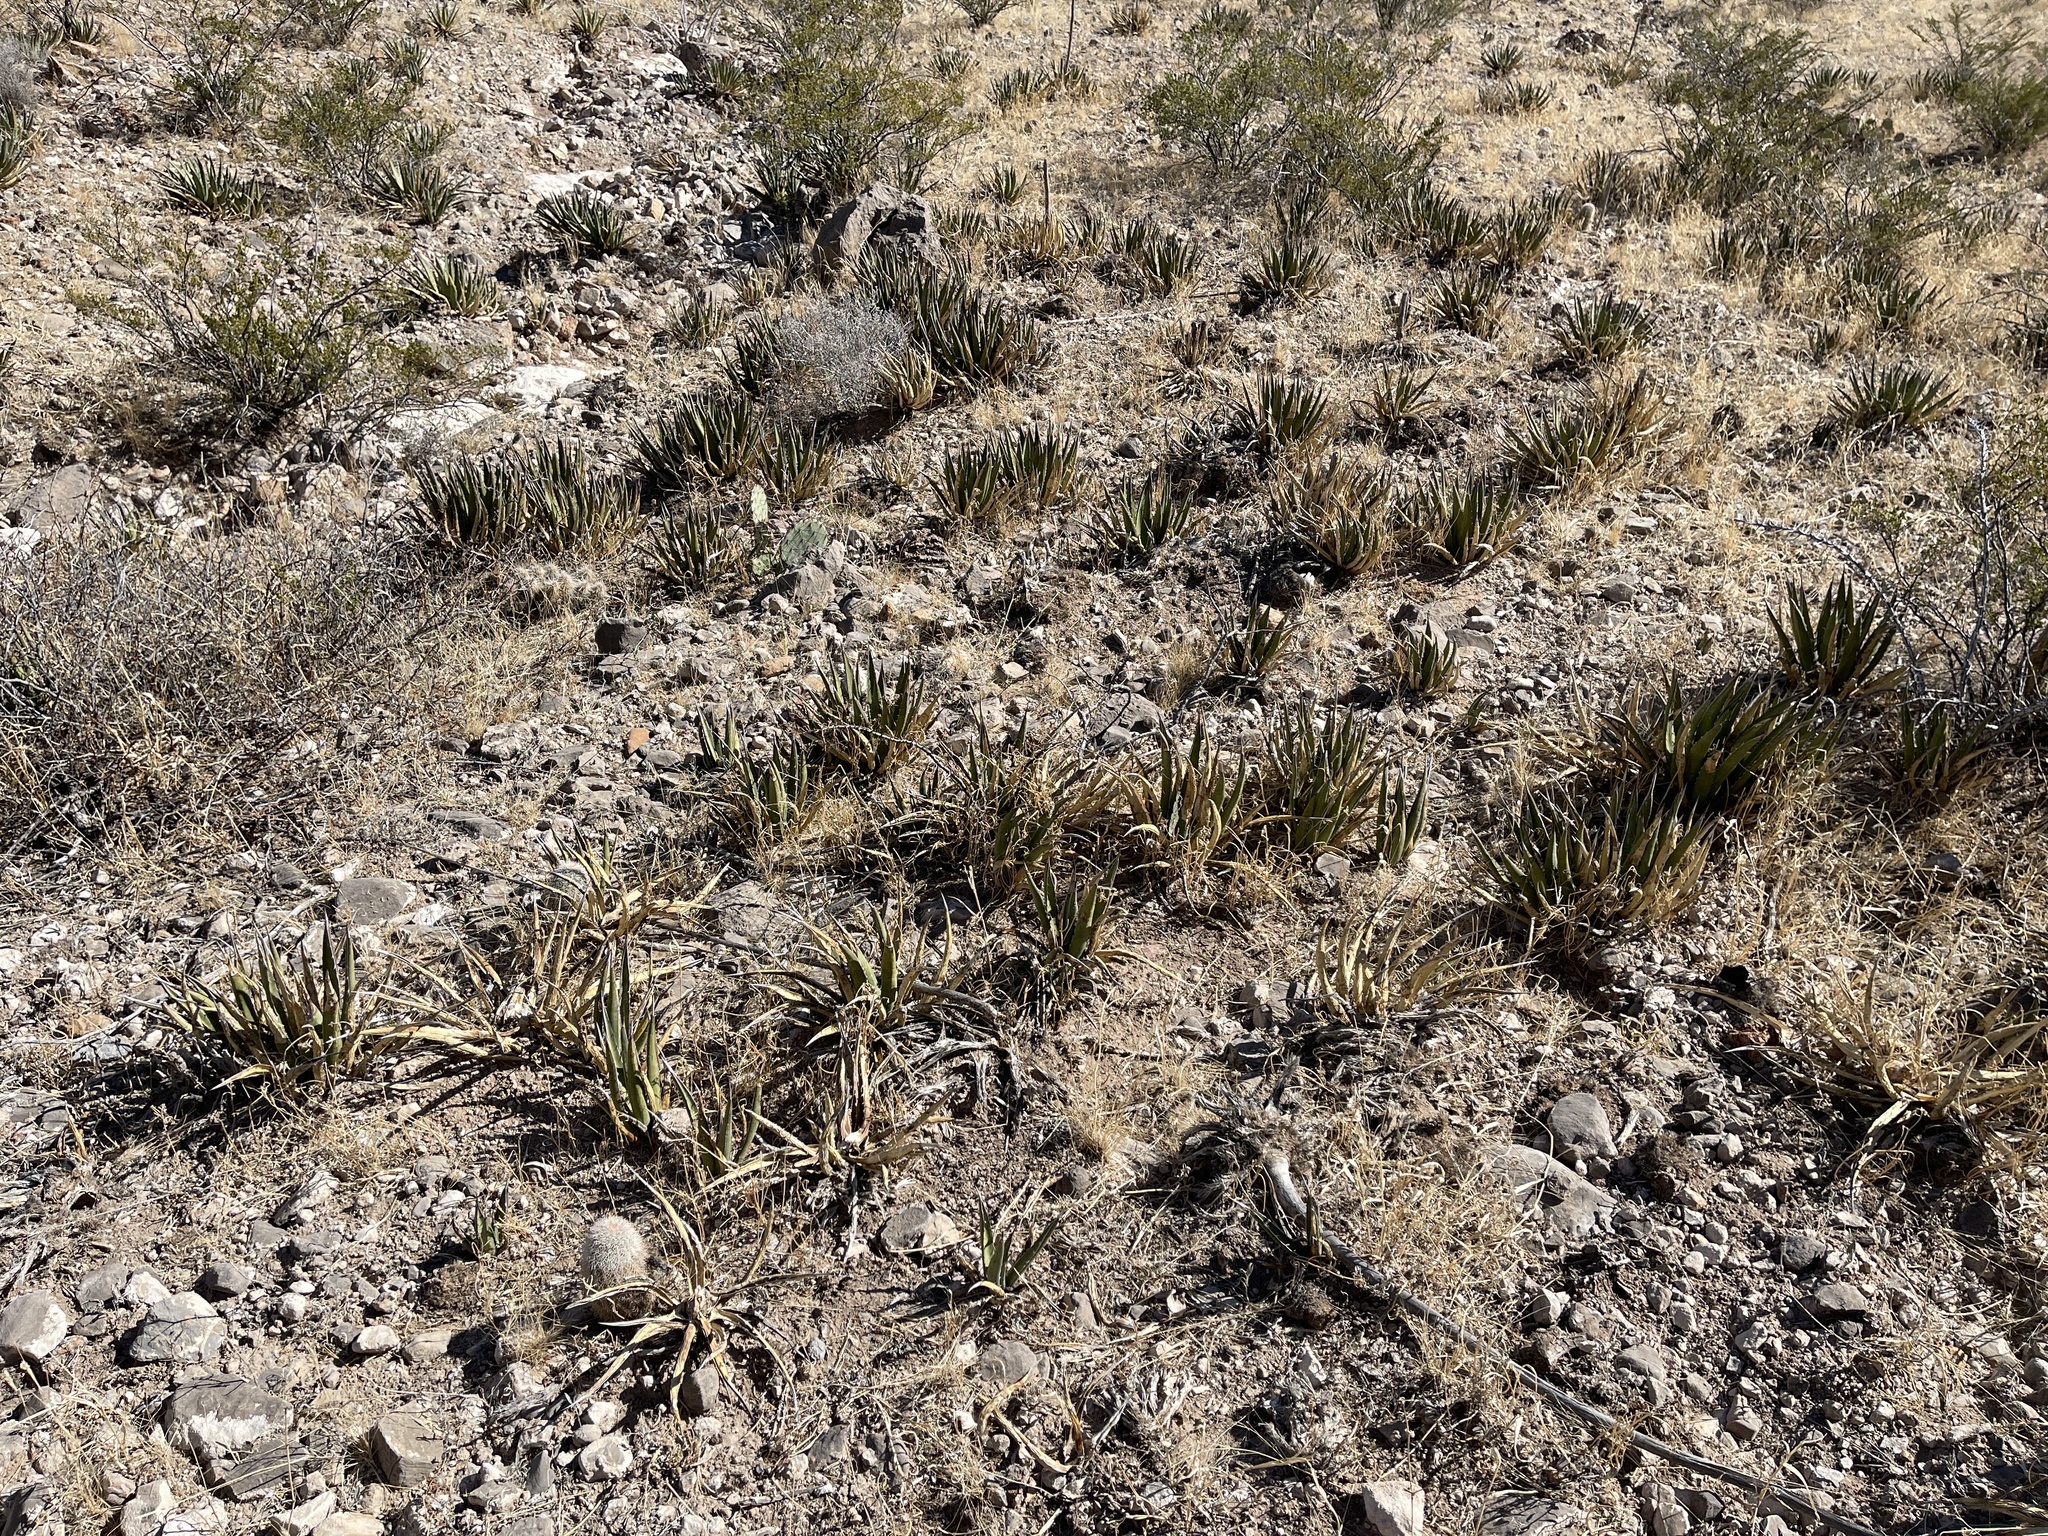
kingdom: Plantae
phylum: Tracheophyta
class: Liliopsida
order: Asparagales
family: Asparagaceae
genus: Agave
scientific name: Agave lechuguilla
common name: Lecheguilla agave
